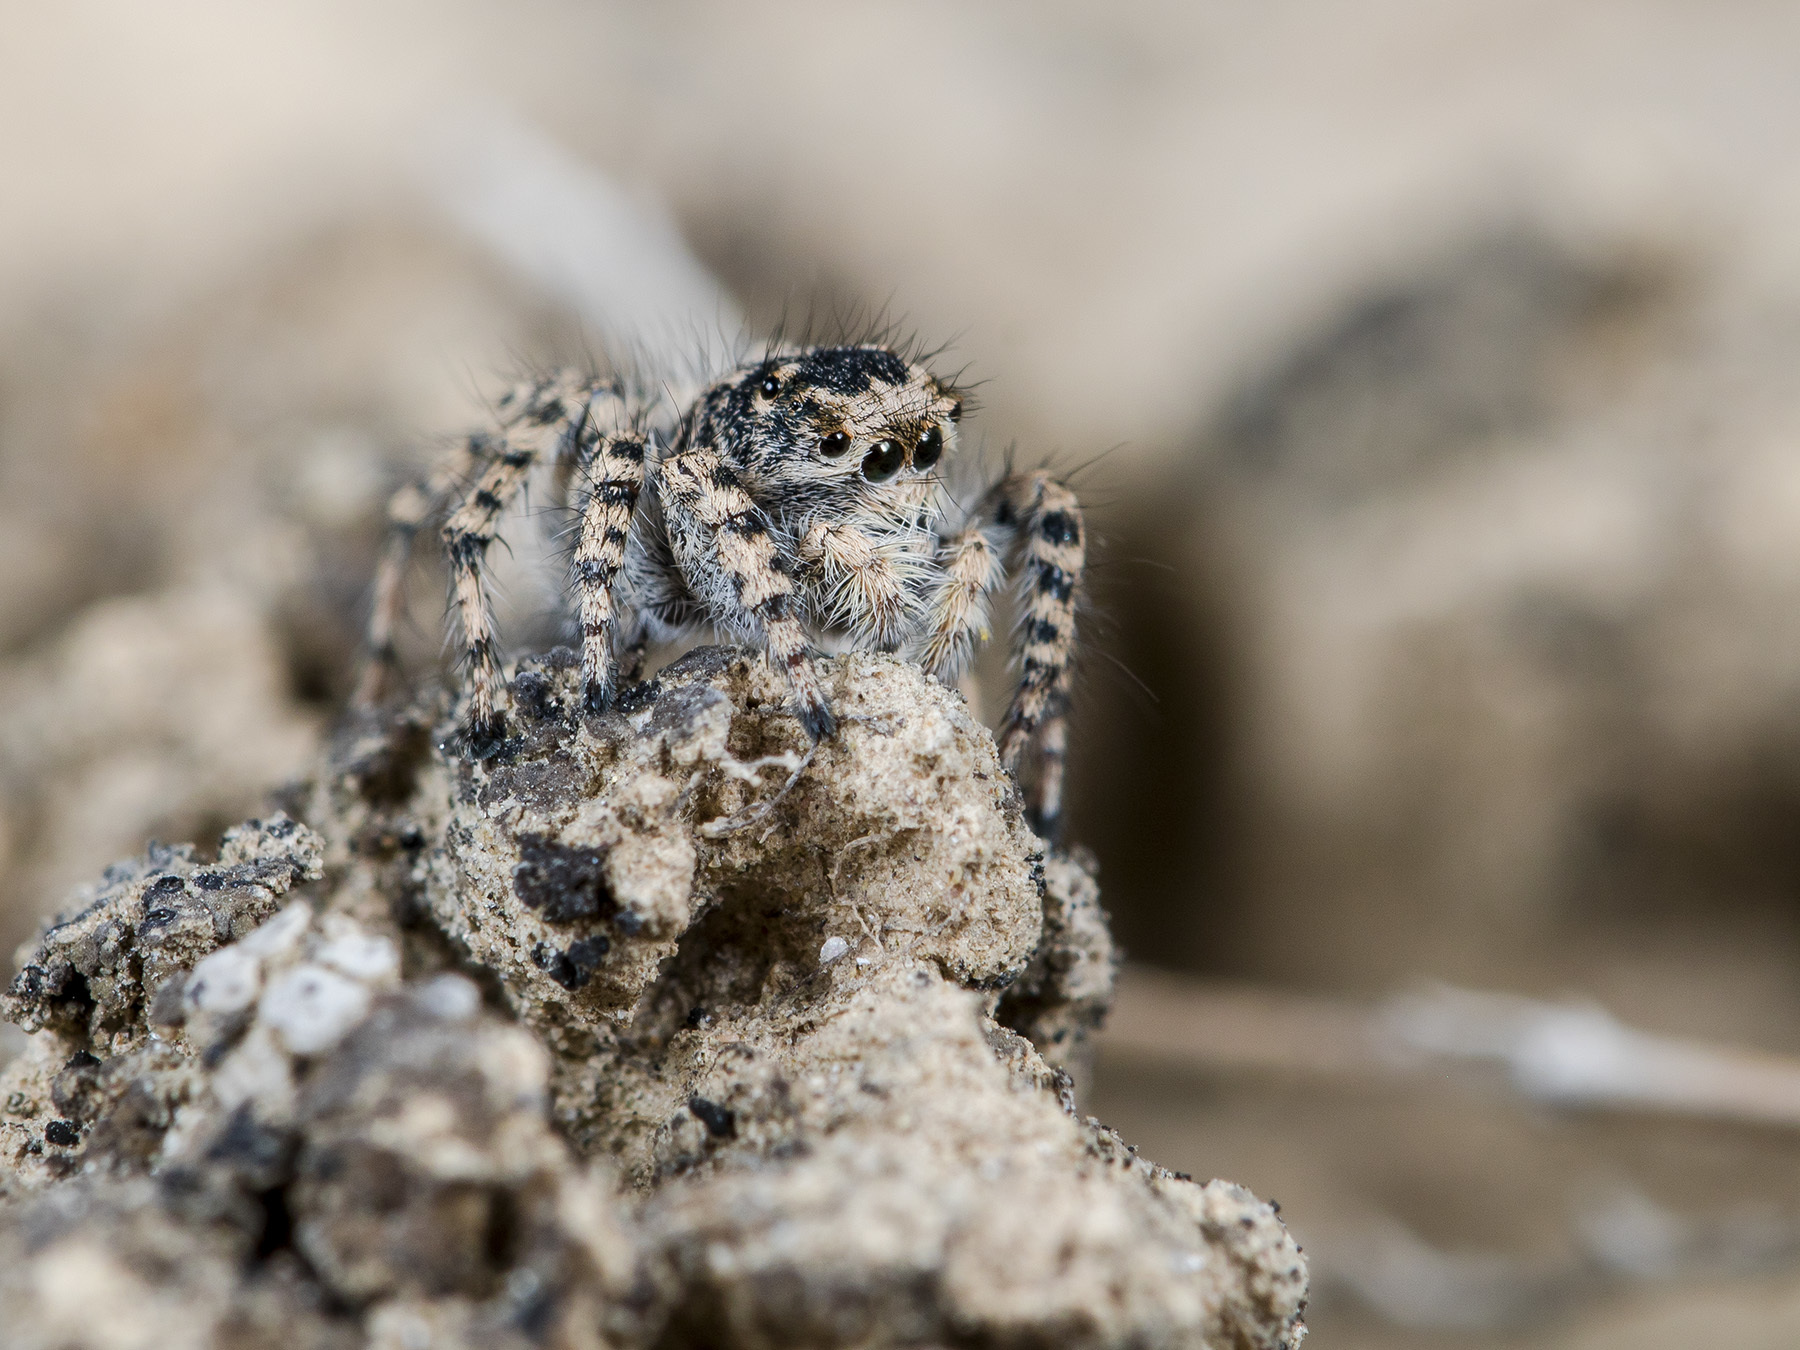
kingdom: Animalia
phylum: Arthropoda
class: Arachnida
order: Araneae
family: Salticidae
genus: Aelurillus
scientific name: Aelurillus dubatolovi
